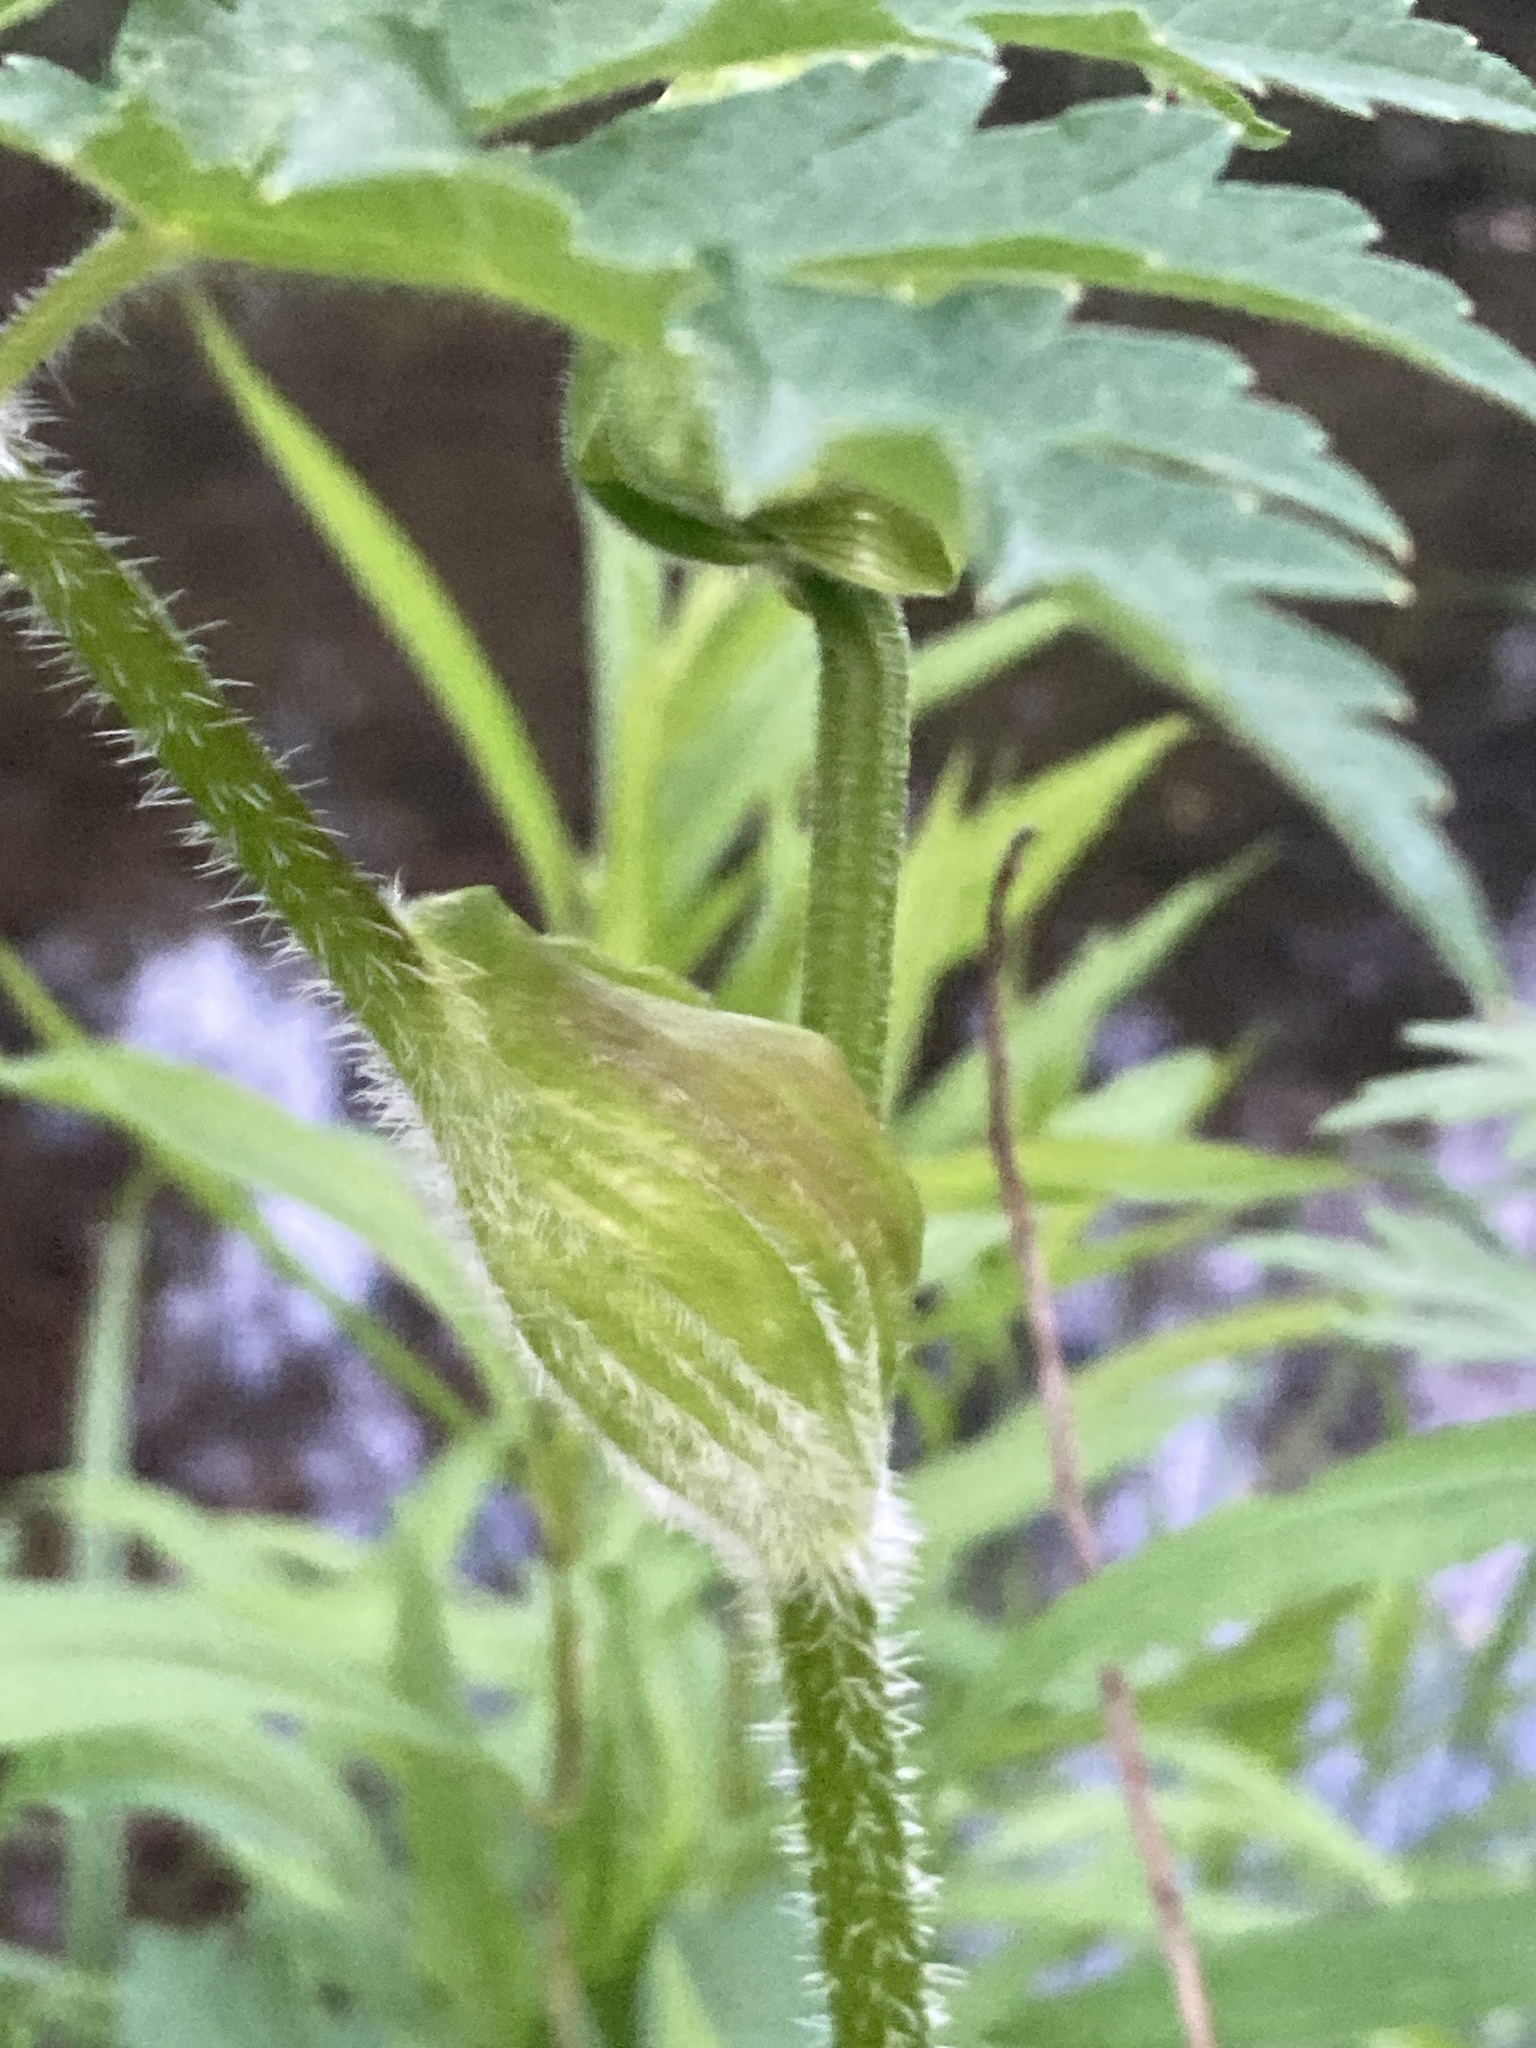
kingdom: Plantae
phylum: Tracheophyta
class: Magnoliopsida
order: Apiales
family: Apiaceae
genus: Heracleum
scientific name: Heracleum sphondylium
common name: Hogweed
